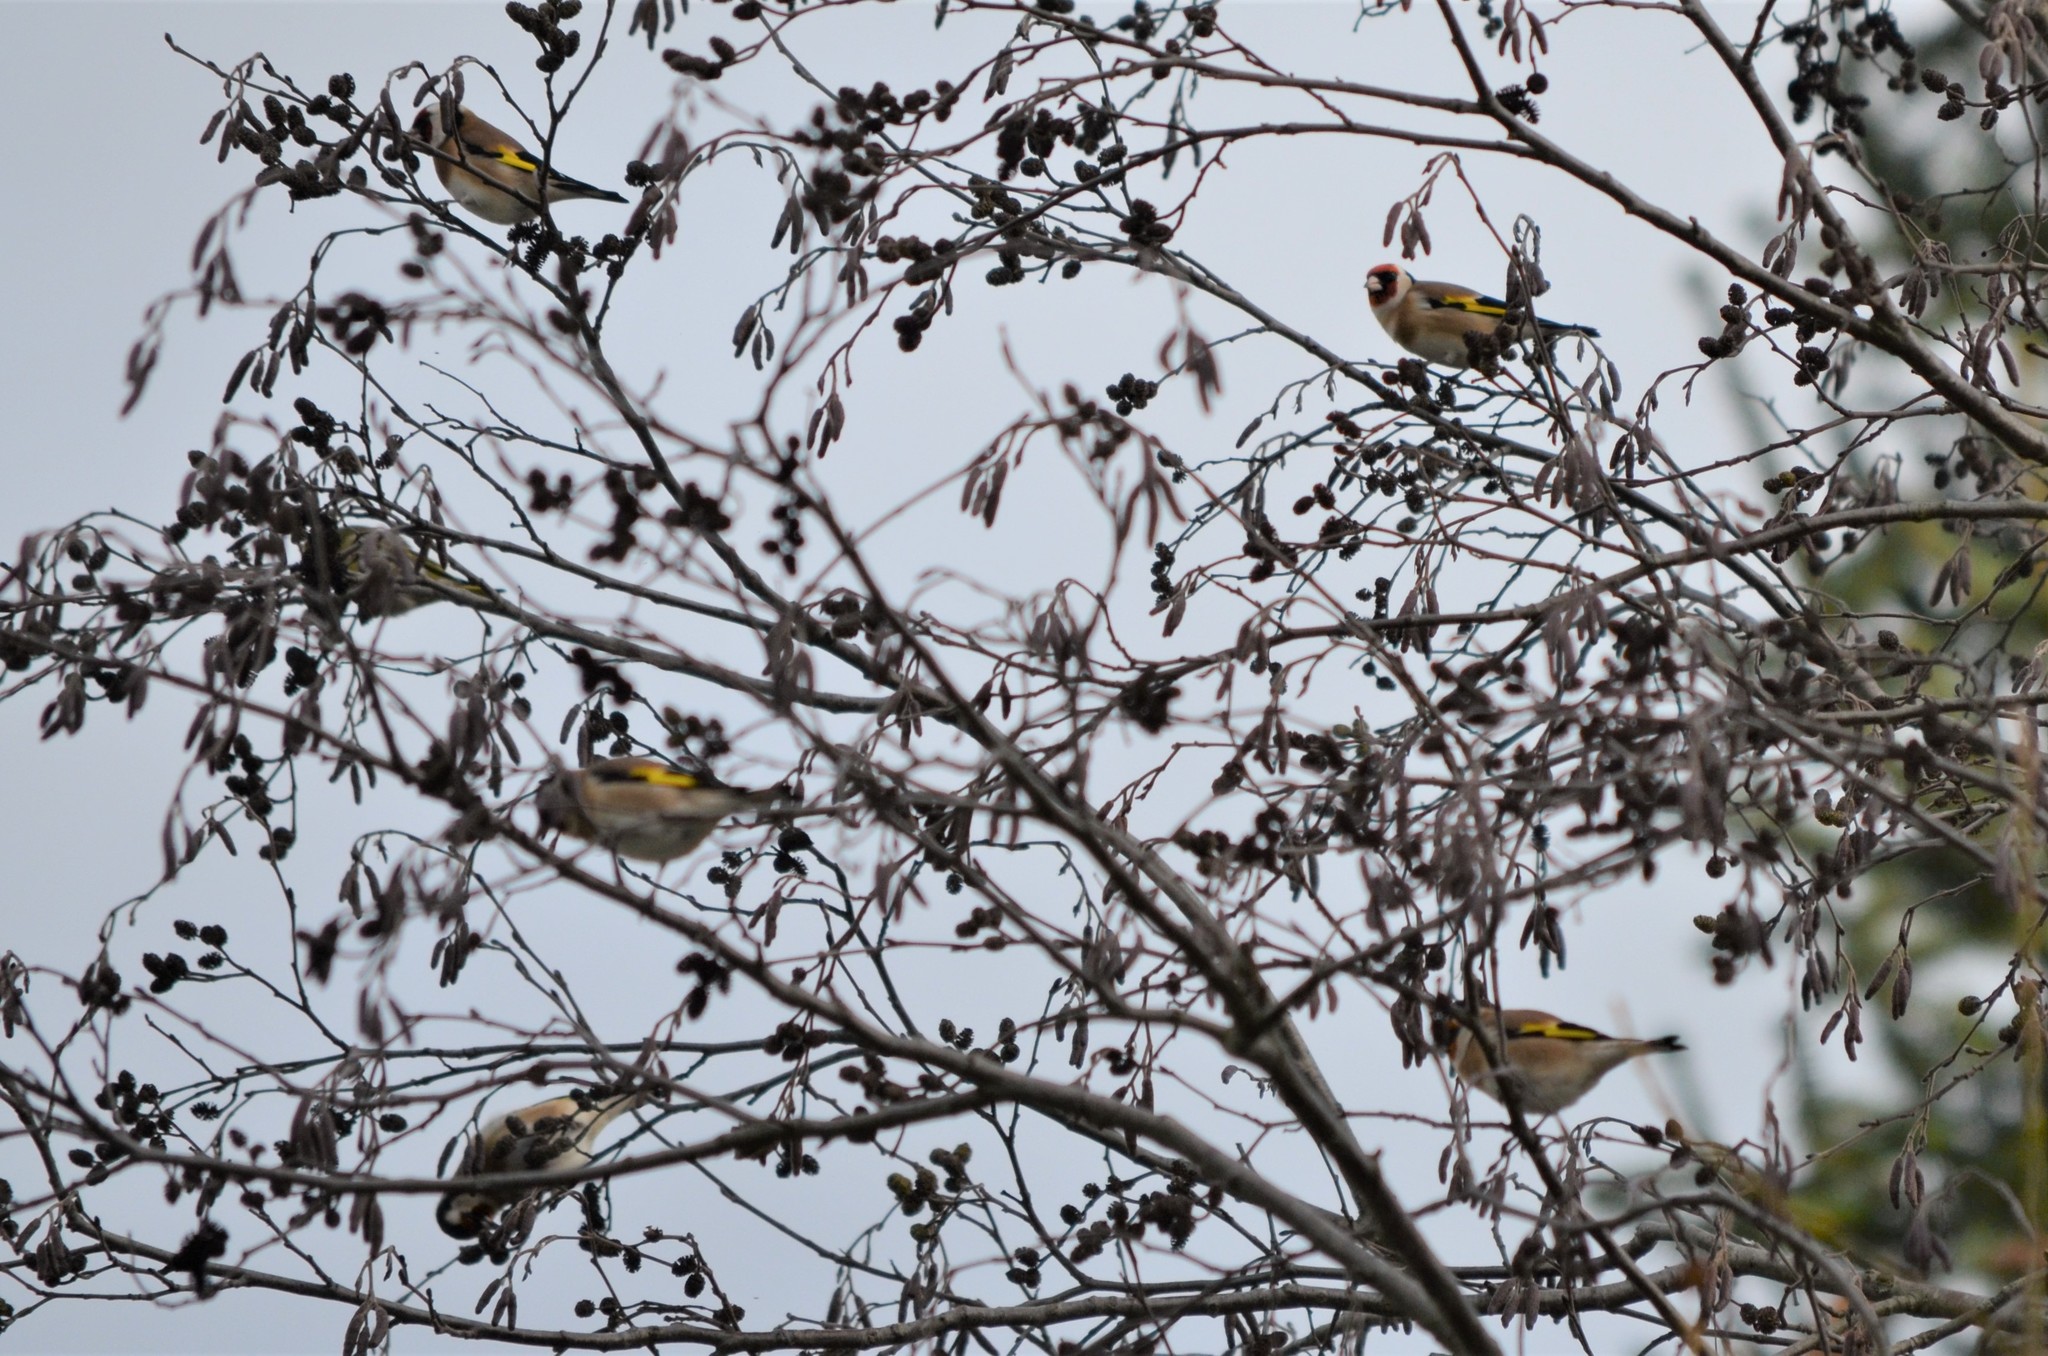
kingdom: Animalia
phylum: Chordata
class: Aves
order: Passeriformes
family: Fringillidae
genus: Carduelis
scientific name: Carduelis carduelis
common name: European goldfinch
